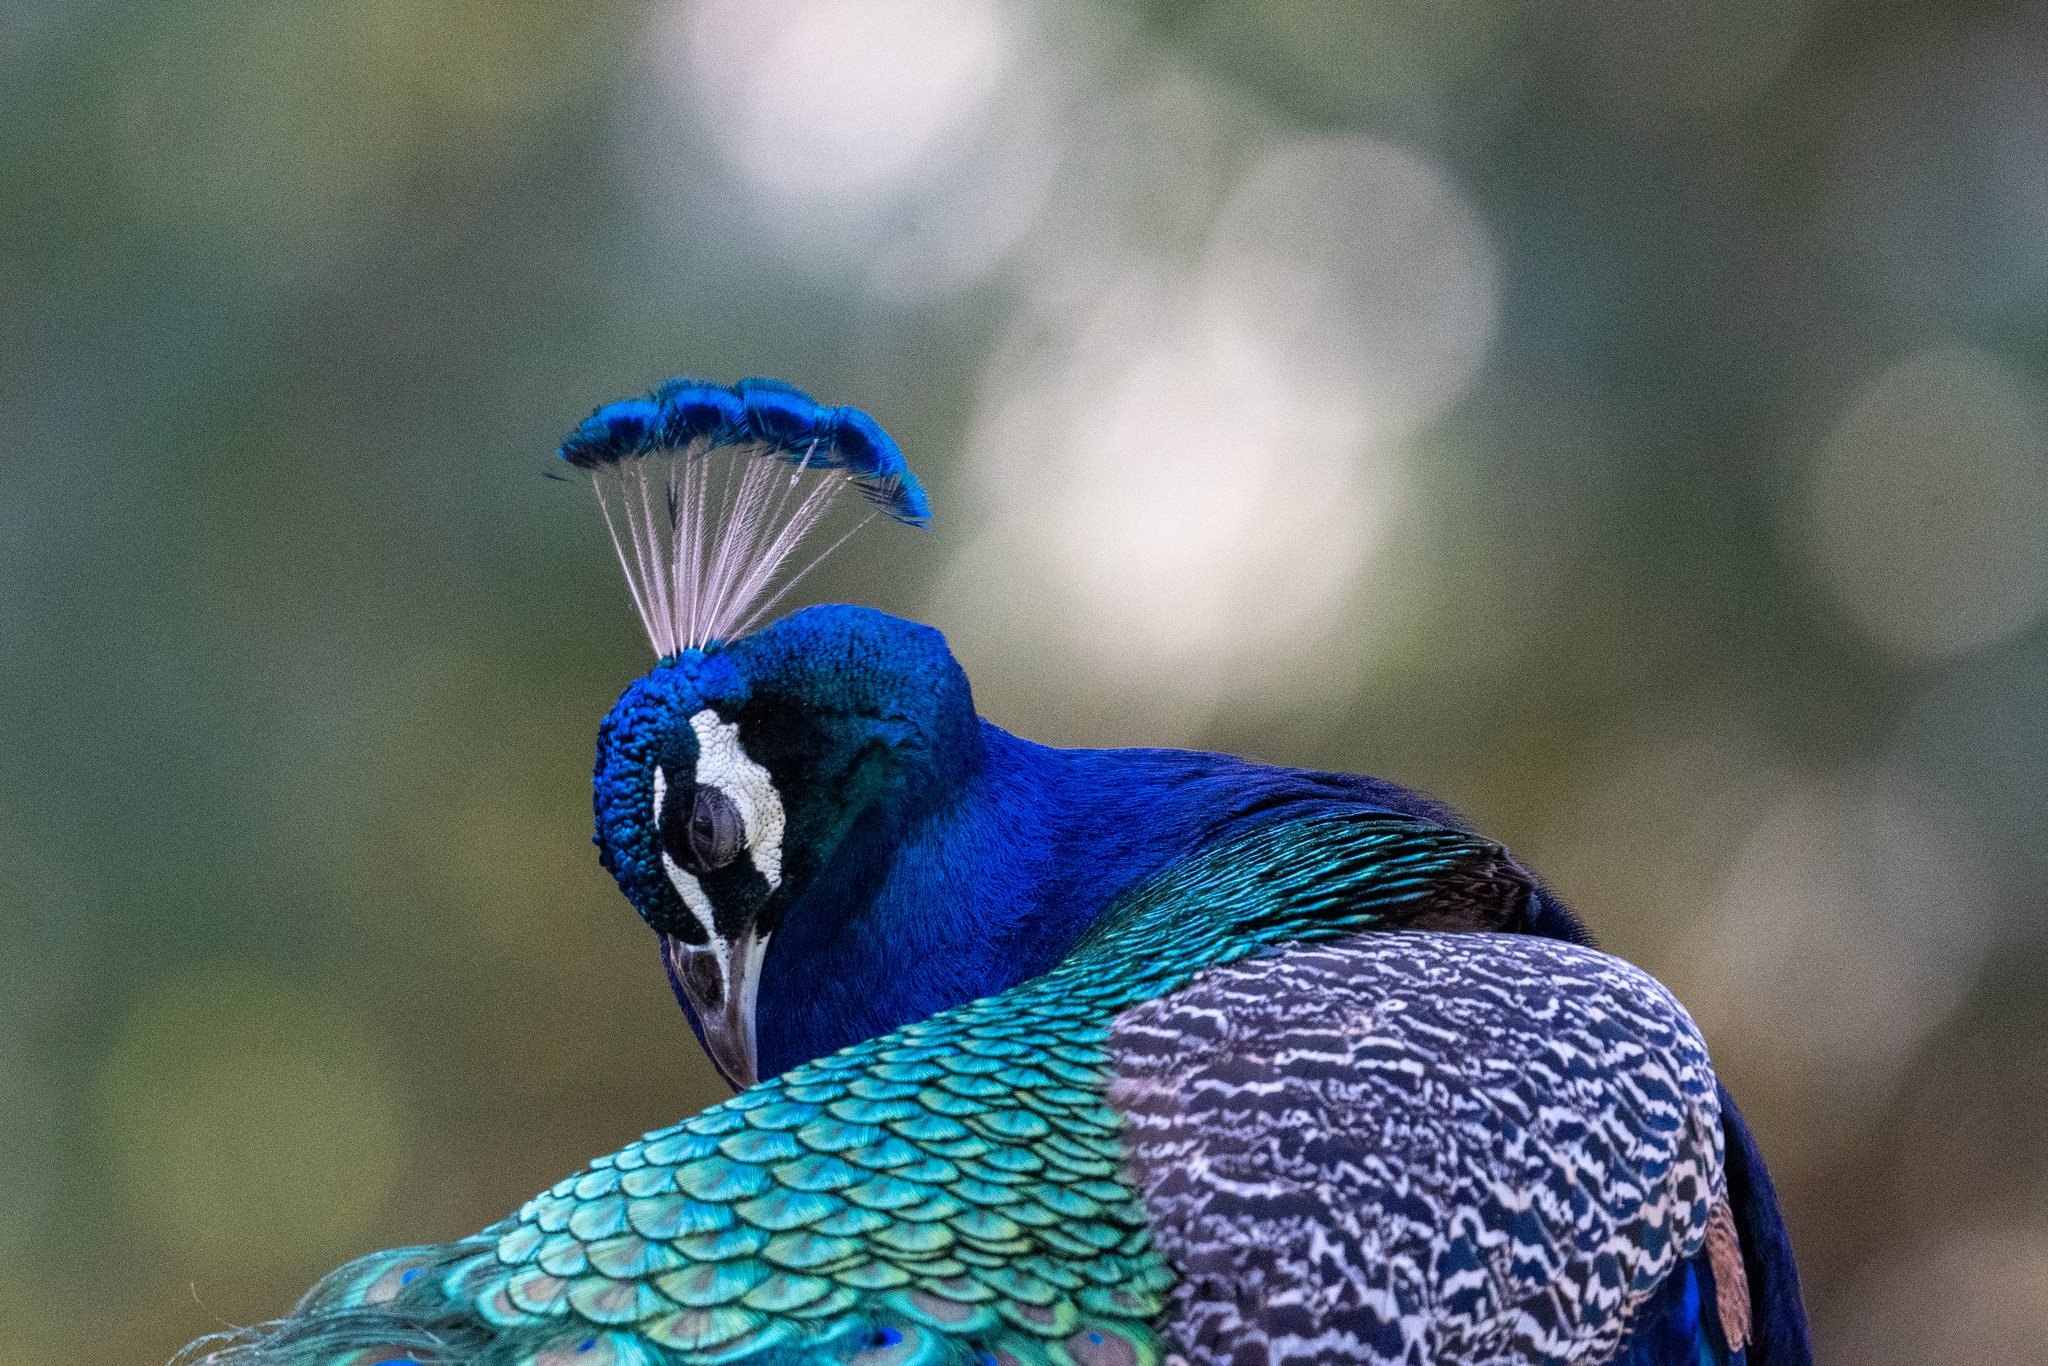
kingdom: Animalia
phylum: Chordata
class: Aves
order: Galliformes
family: Phasianidae
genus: Pavo
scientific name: Pavo cristatus
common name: Indian peafowl
